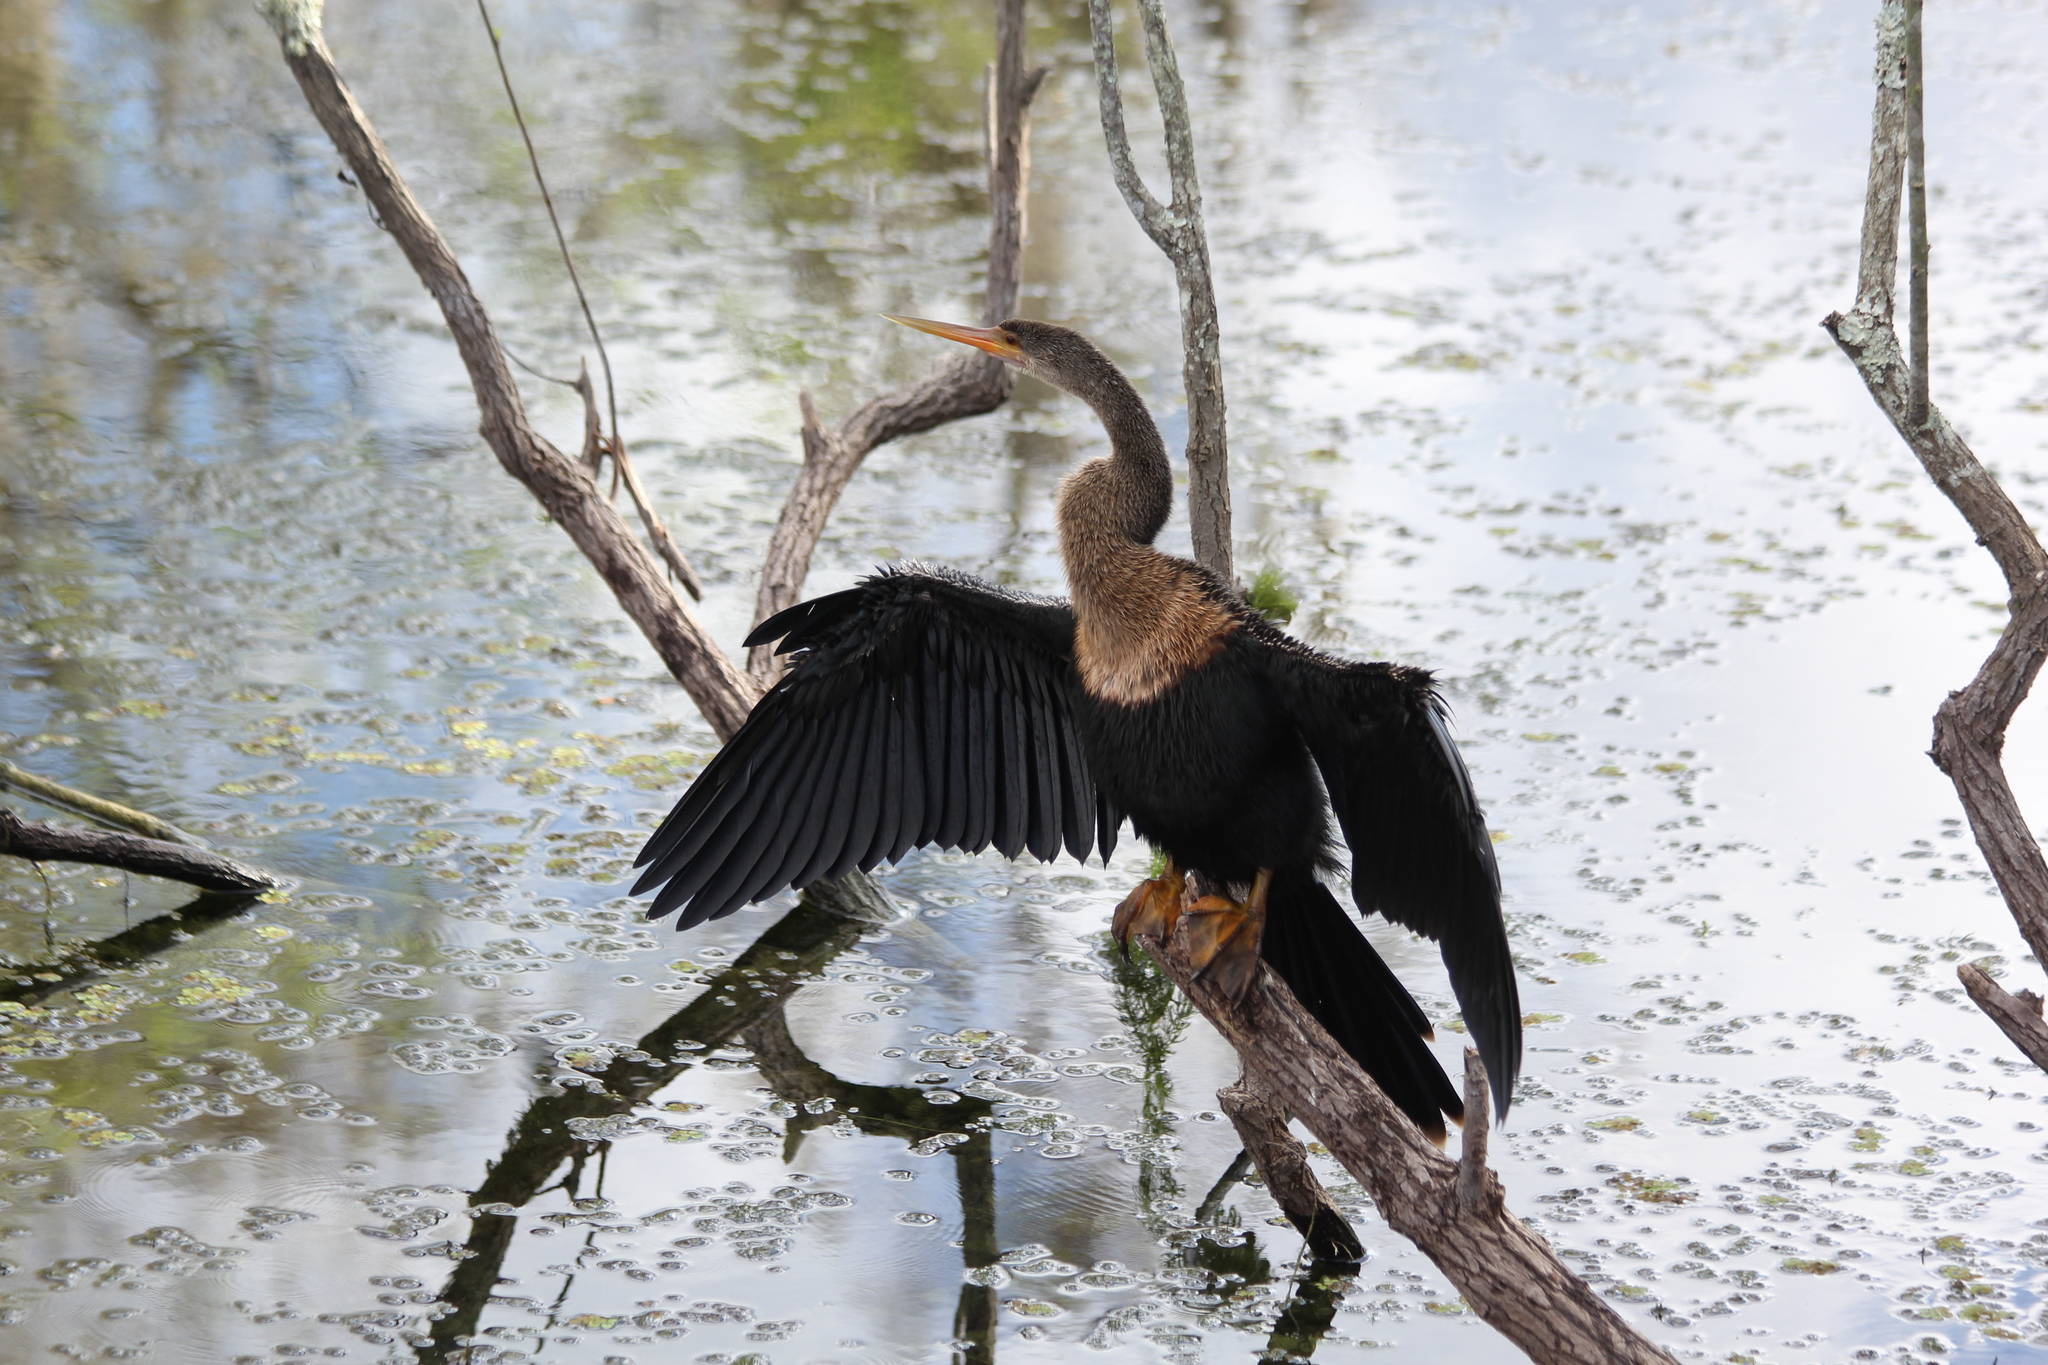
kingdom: Animalia
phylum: Chordata
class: Aves
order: Suliformes
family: Anhingidae
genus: Anhinga
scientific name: Anhinga anhinga
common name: Anhinga
